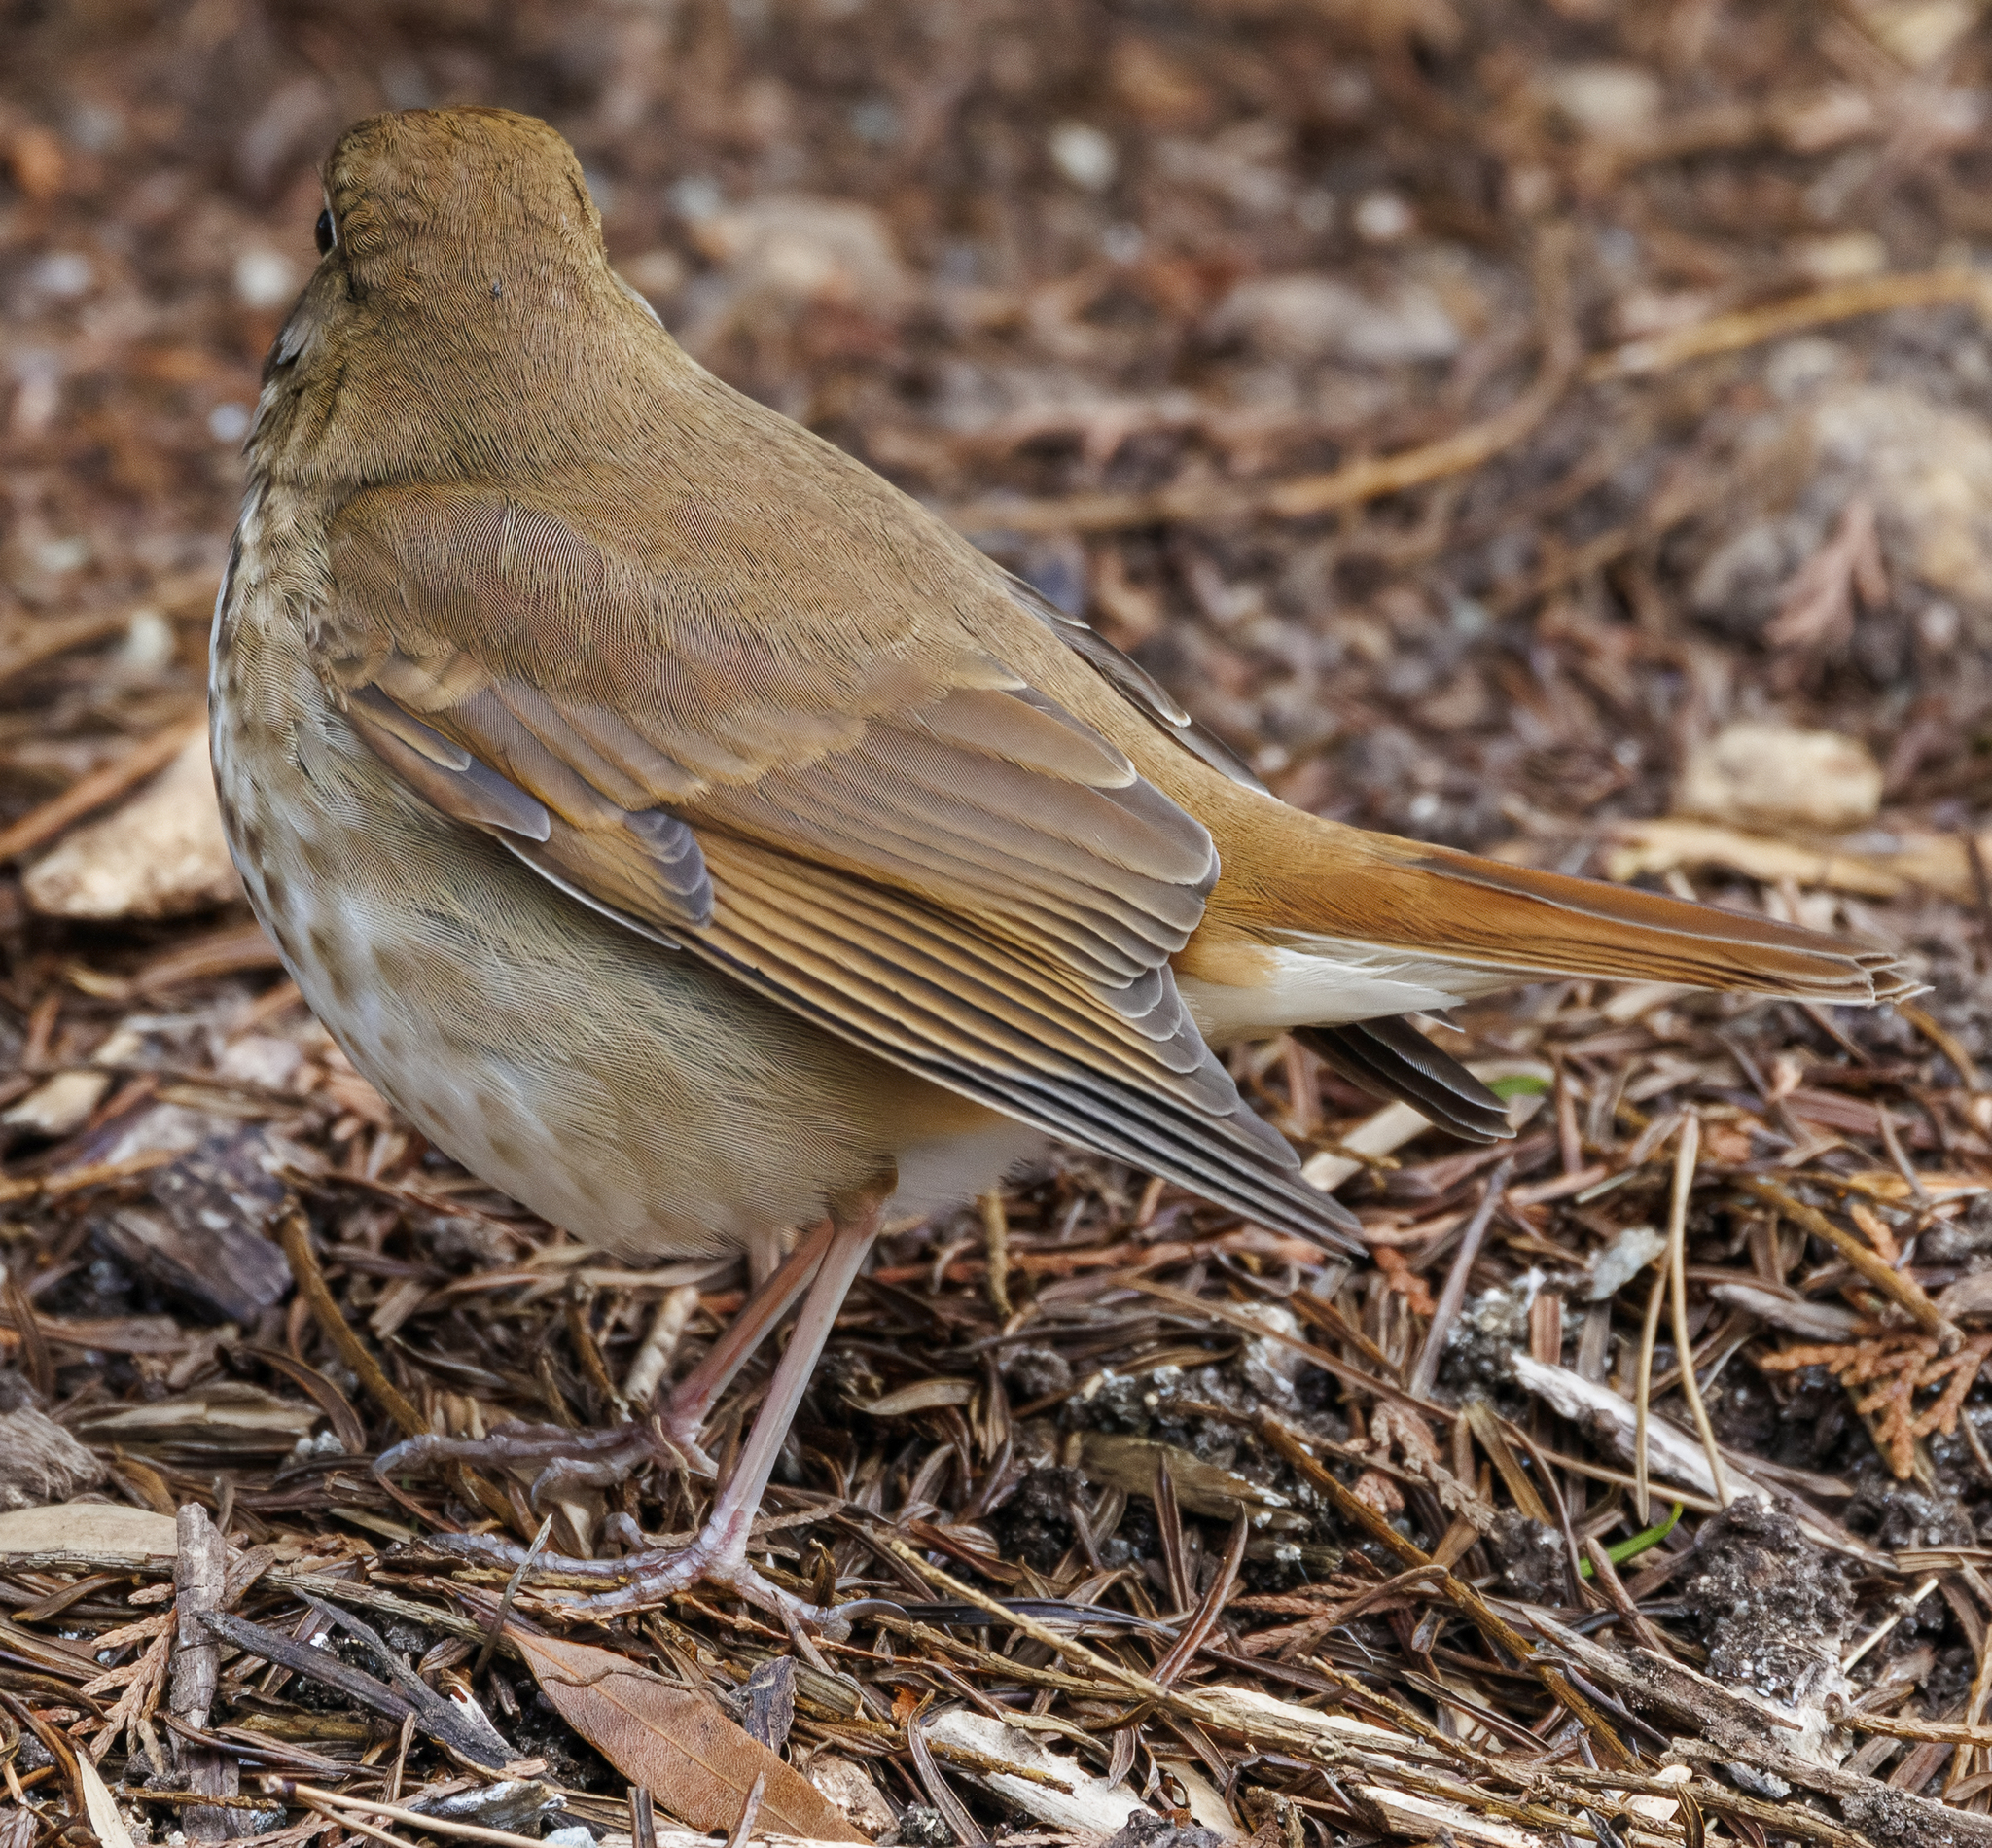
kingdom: Animalia
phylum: Chordata
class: Aves
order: Passeriformes
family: Turdidae
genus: Catharus
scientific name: Catharus guttatus
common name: Hermit thrush
